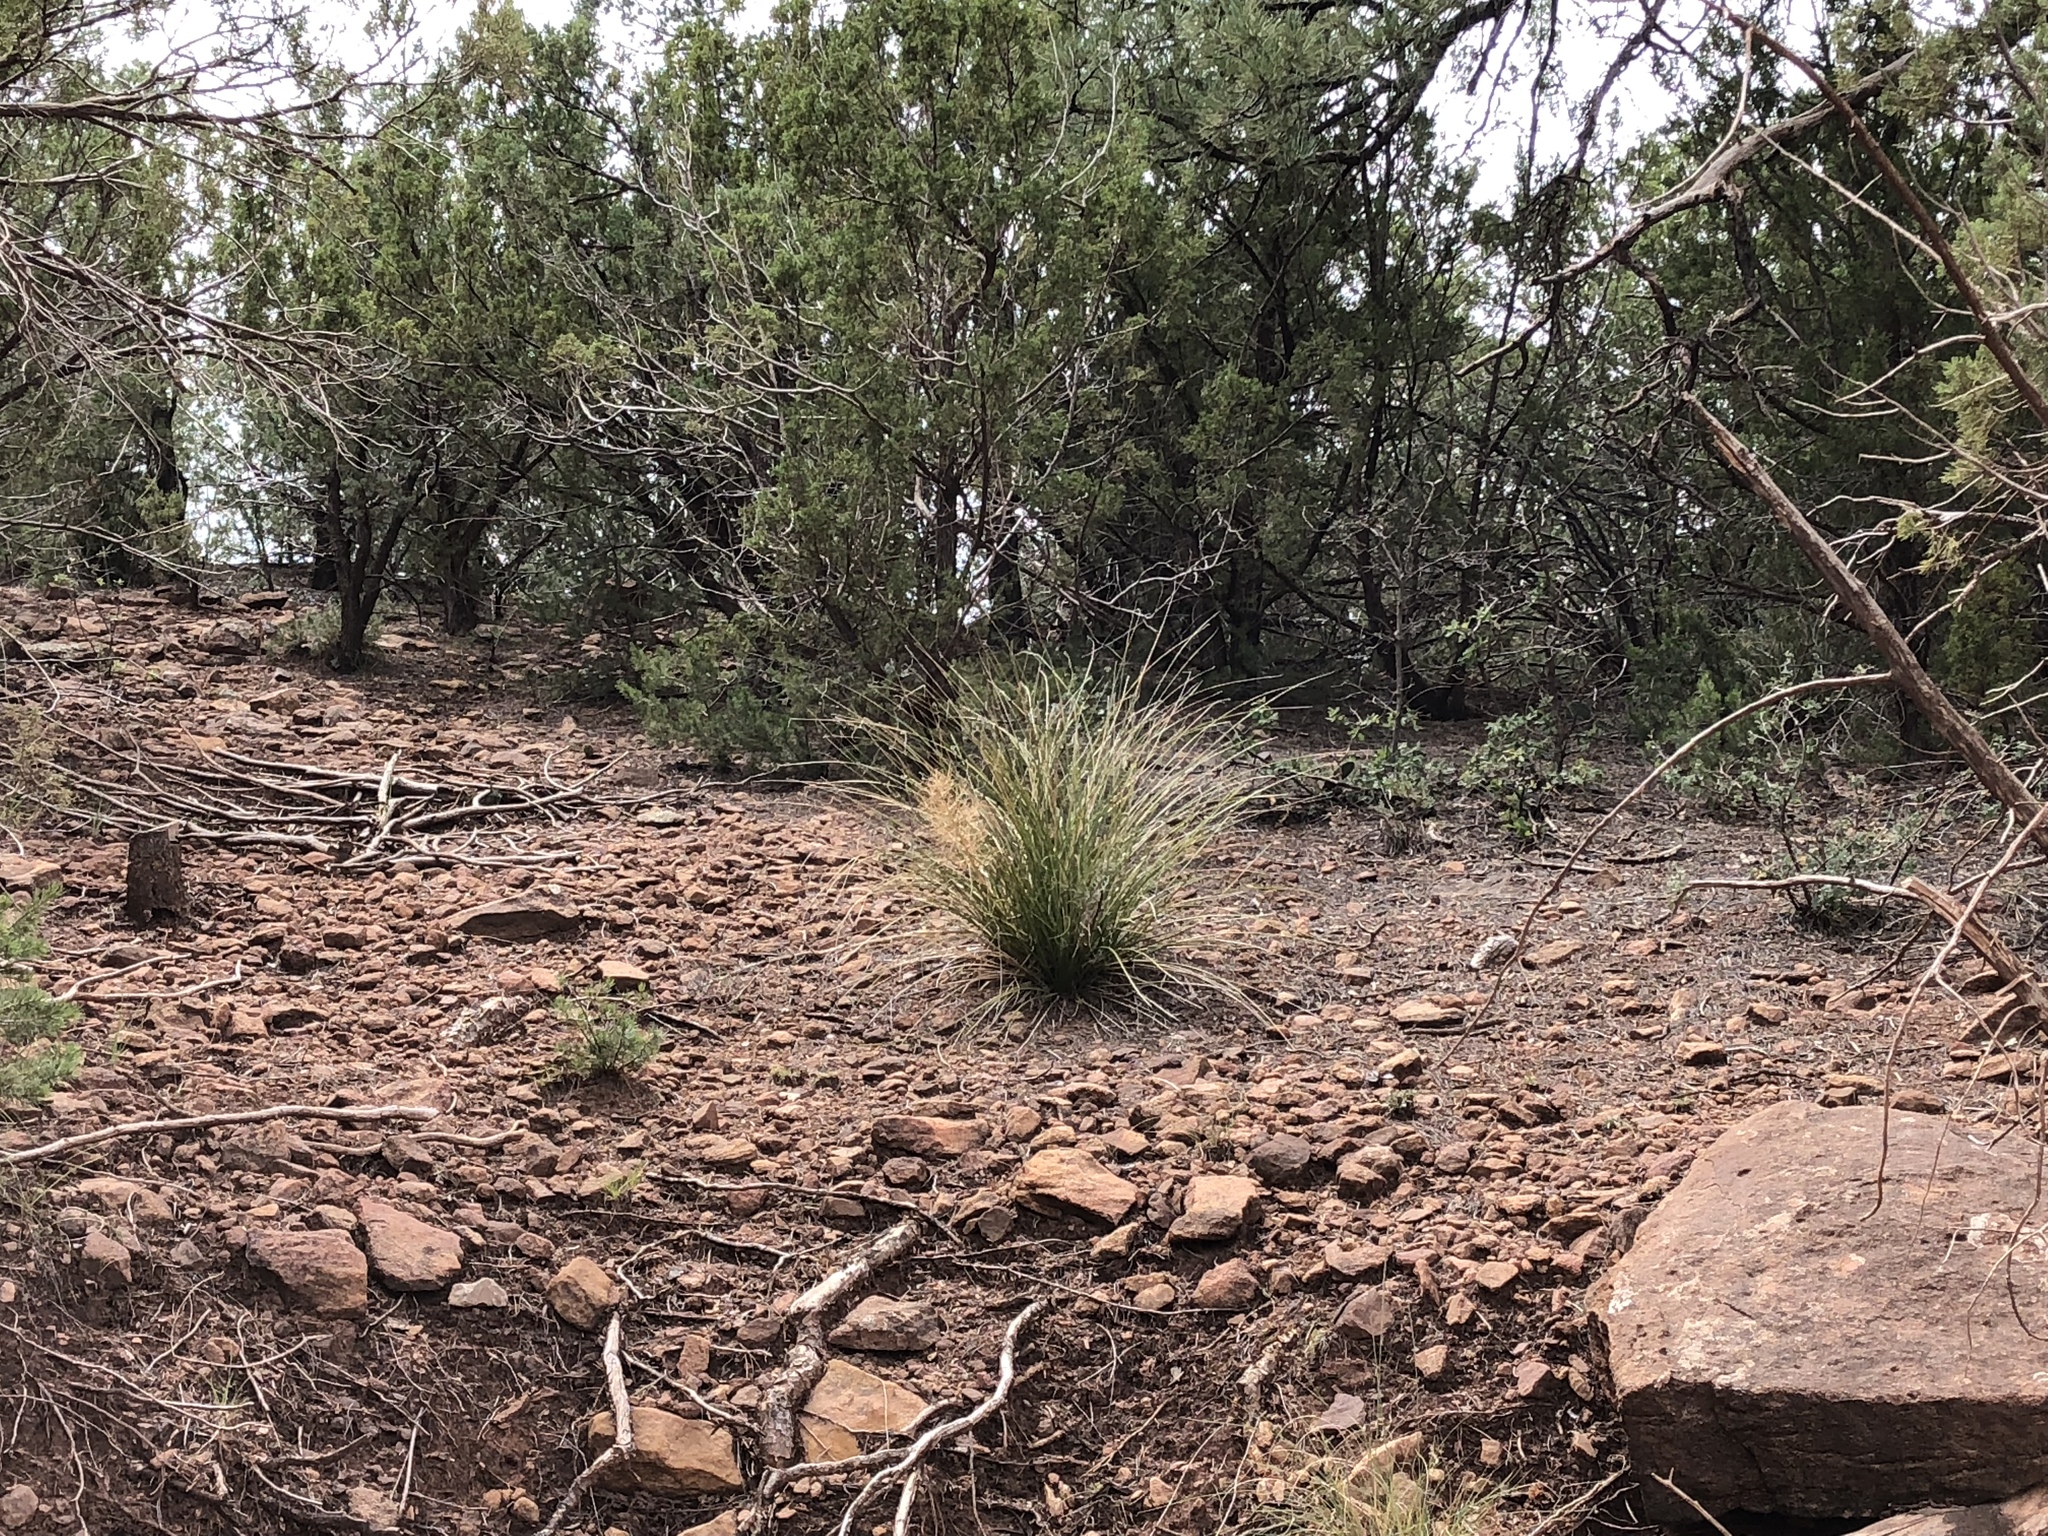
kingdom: Plantae
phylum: Tracheophyta
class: Liliopsida
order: Asparagales
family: Asparagaceae
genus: Nolina
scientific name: Nolina microcarpa
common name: Bear-grass
